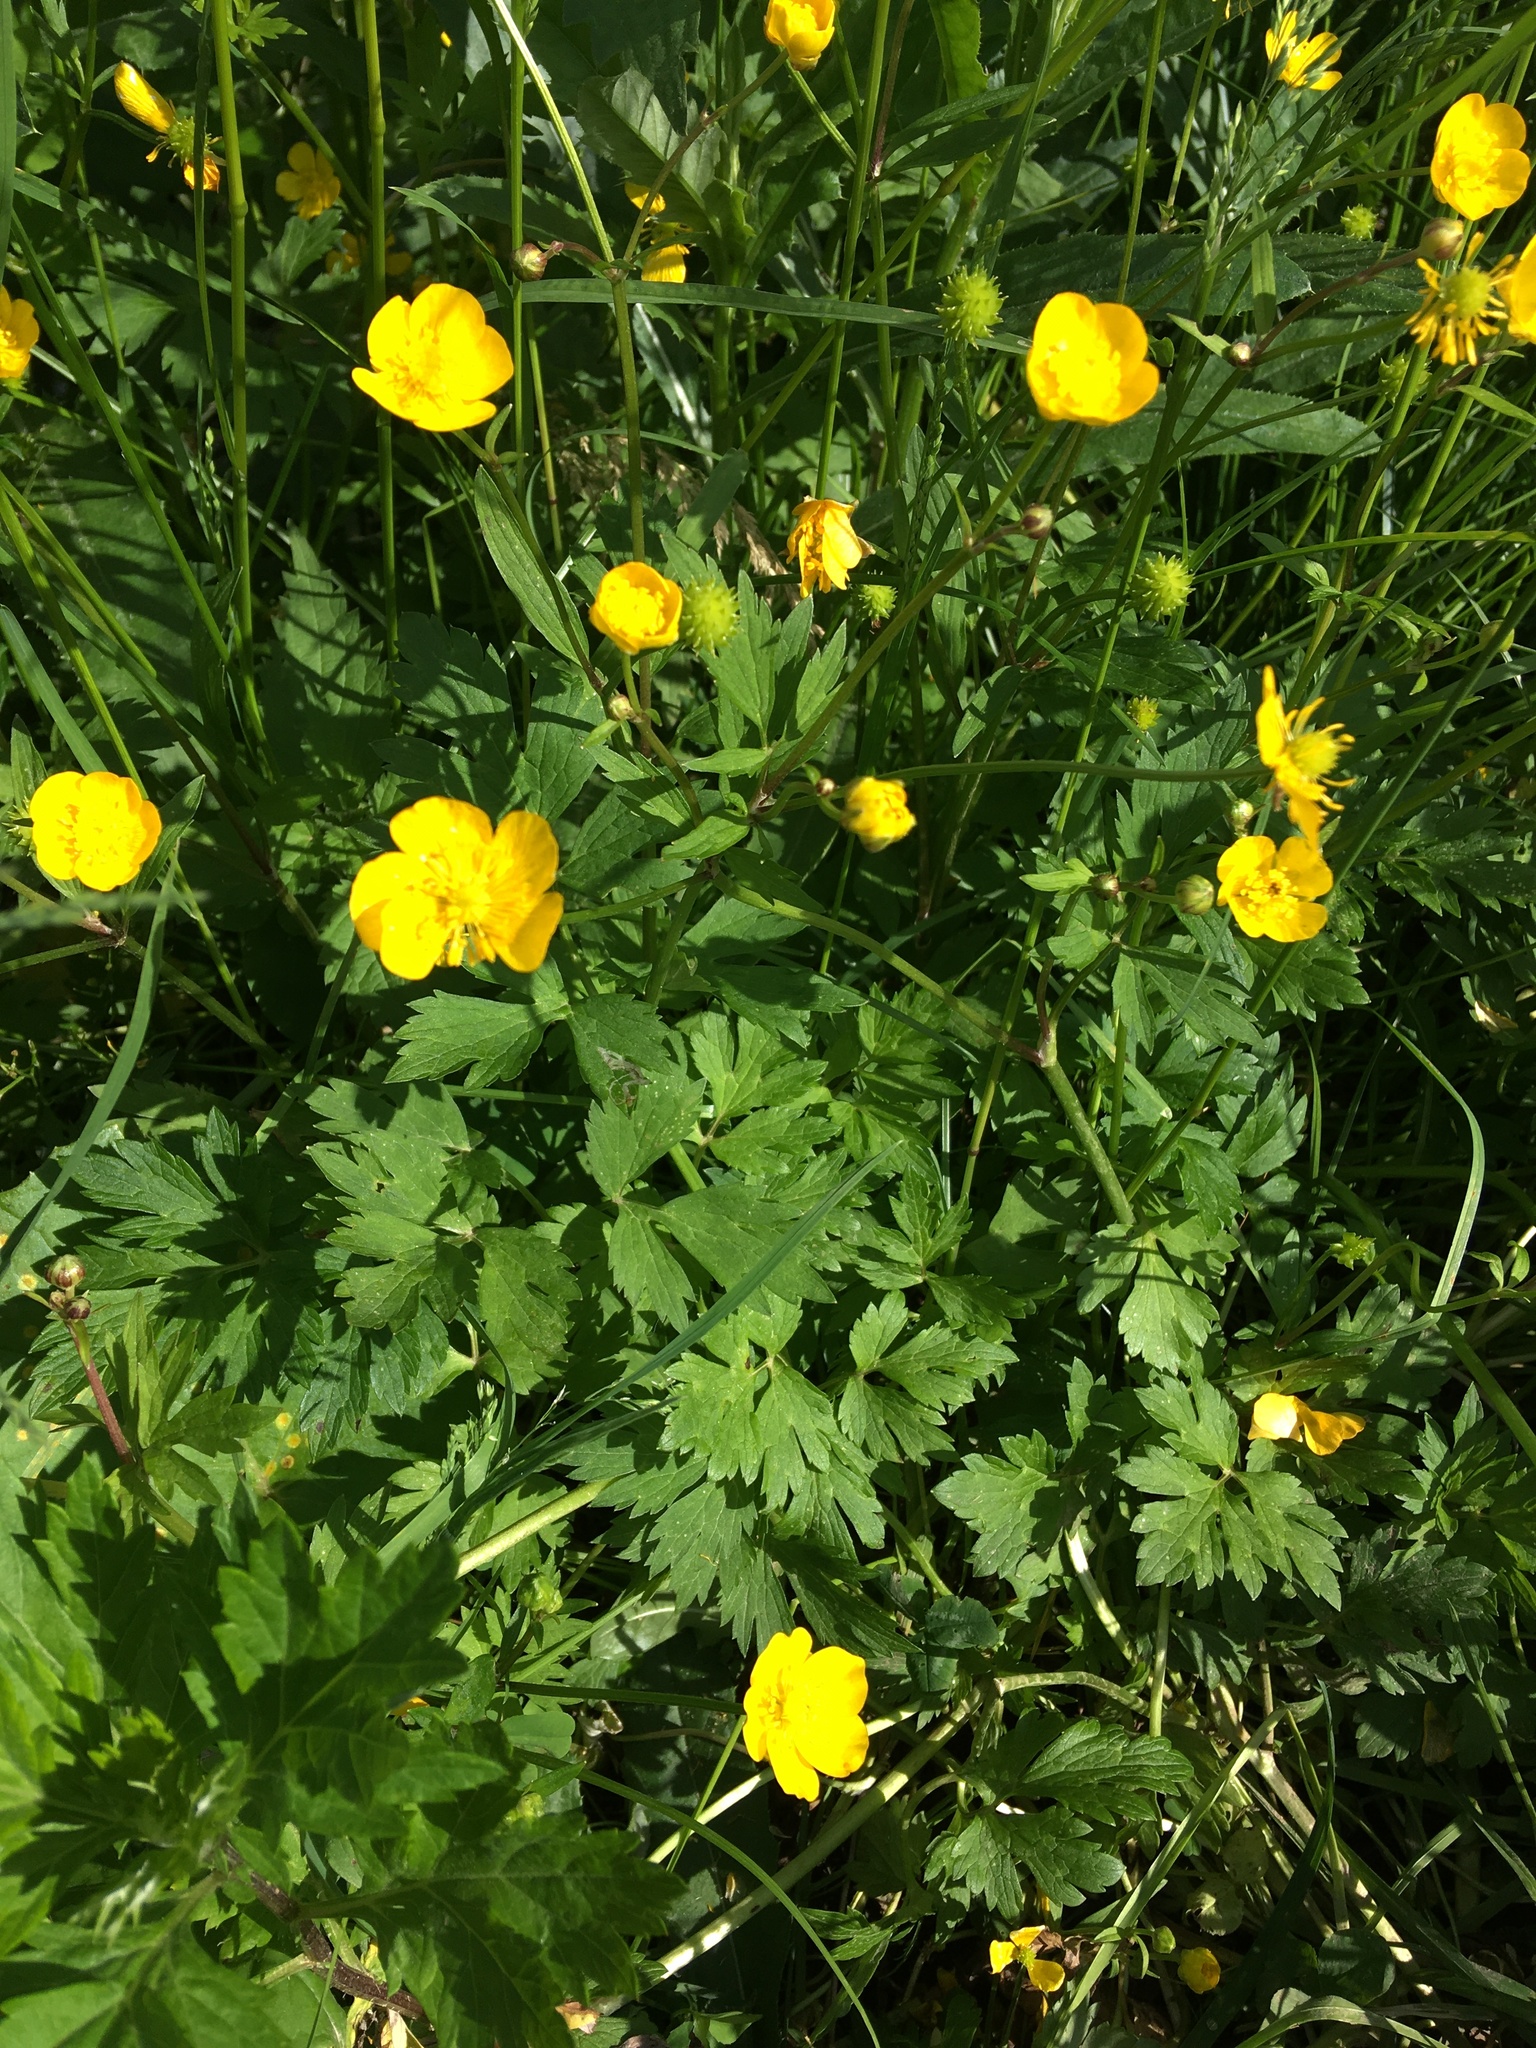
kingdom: Plantae
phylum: Tracheophyta
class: Magnoliopsida
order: Ranunculales
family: Ranunculaceae
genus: Ranunculus
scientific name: Ranunculus repens
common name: Creeping buttercup
